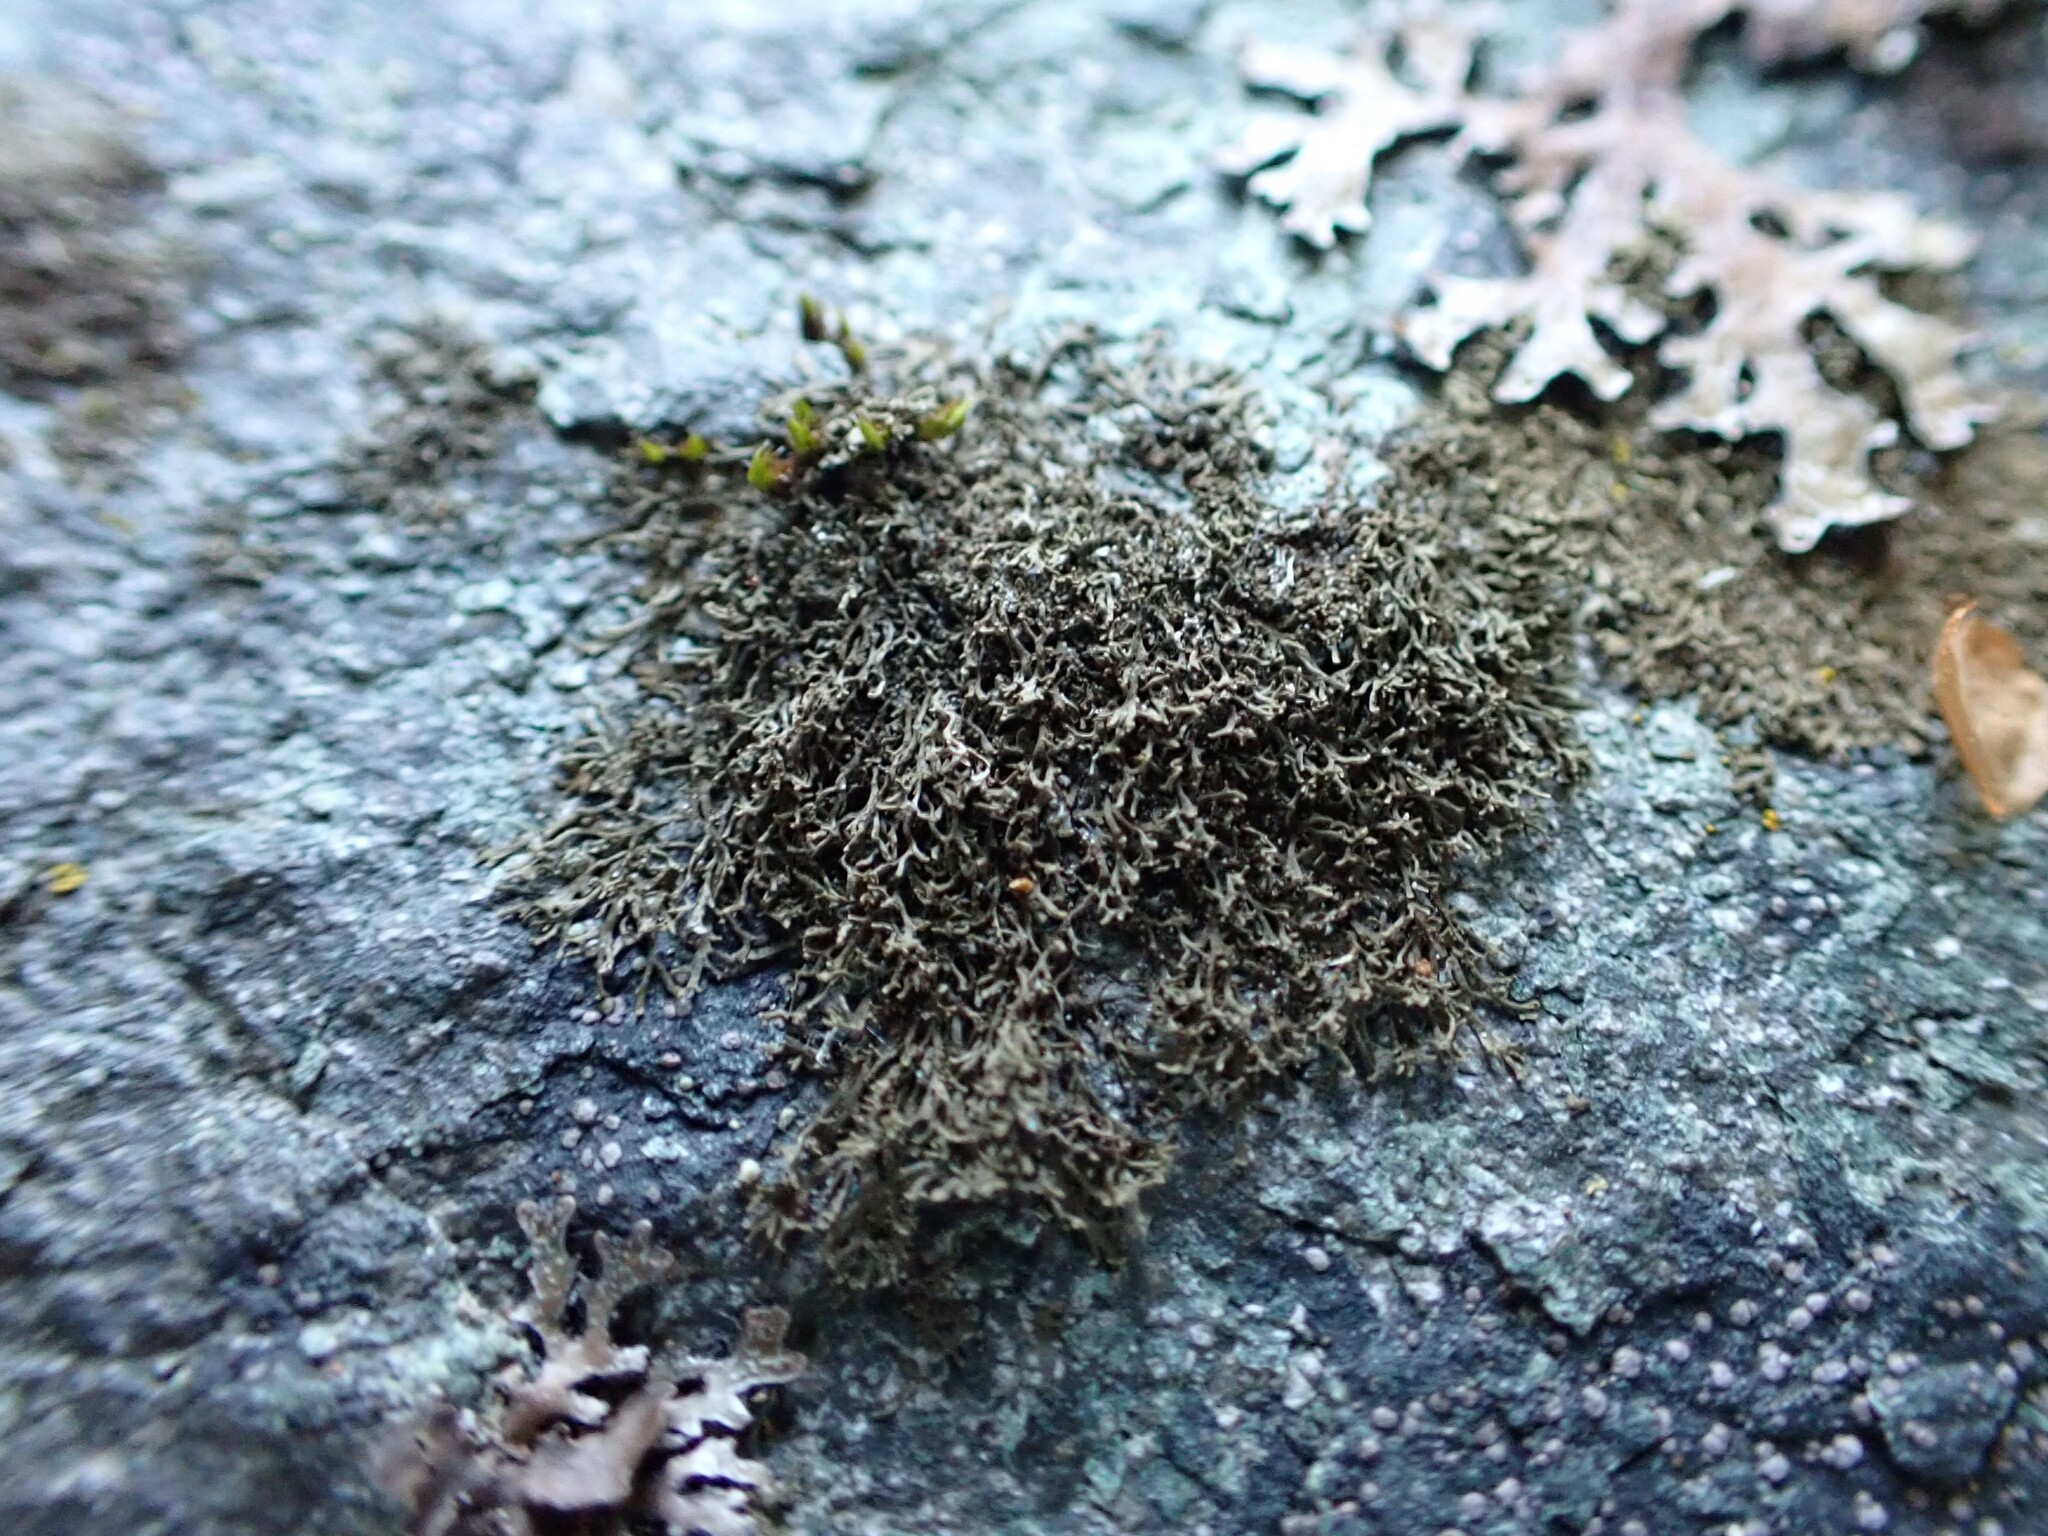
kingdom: Fungi
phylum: Ascomycota
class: Lecanoromycetes
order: Peltigerales
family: Koerberiaceae
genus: Tingiopsidium
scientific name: Tingiopsidium isidiatum
